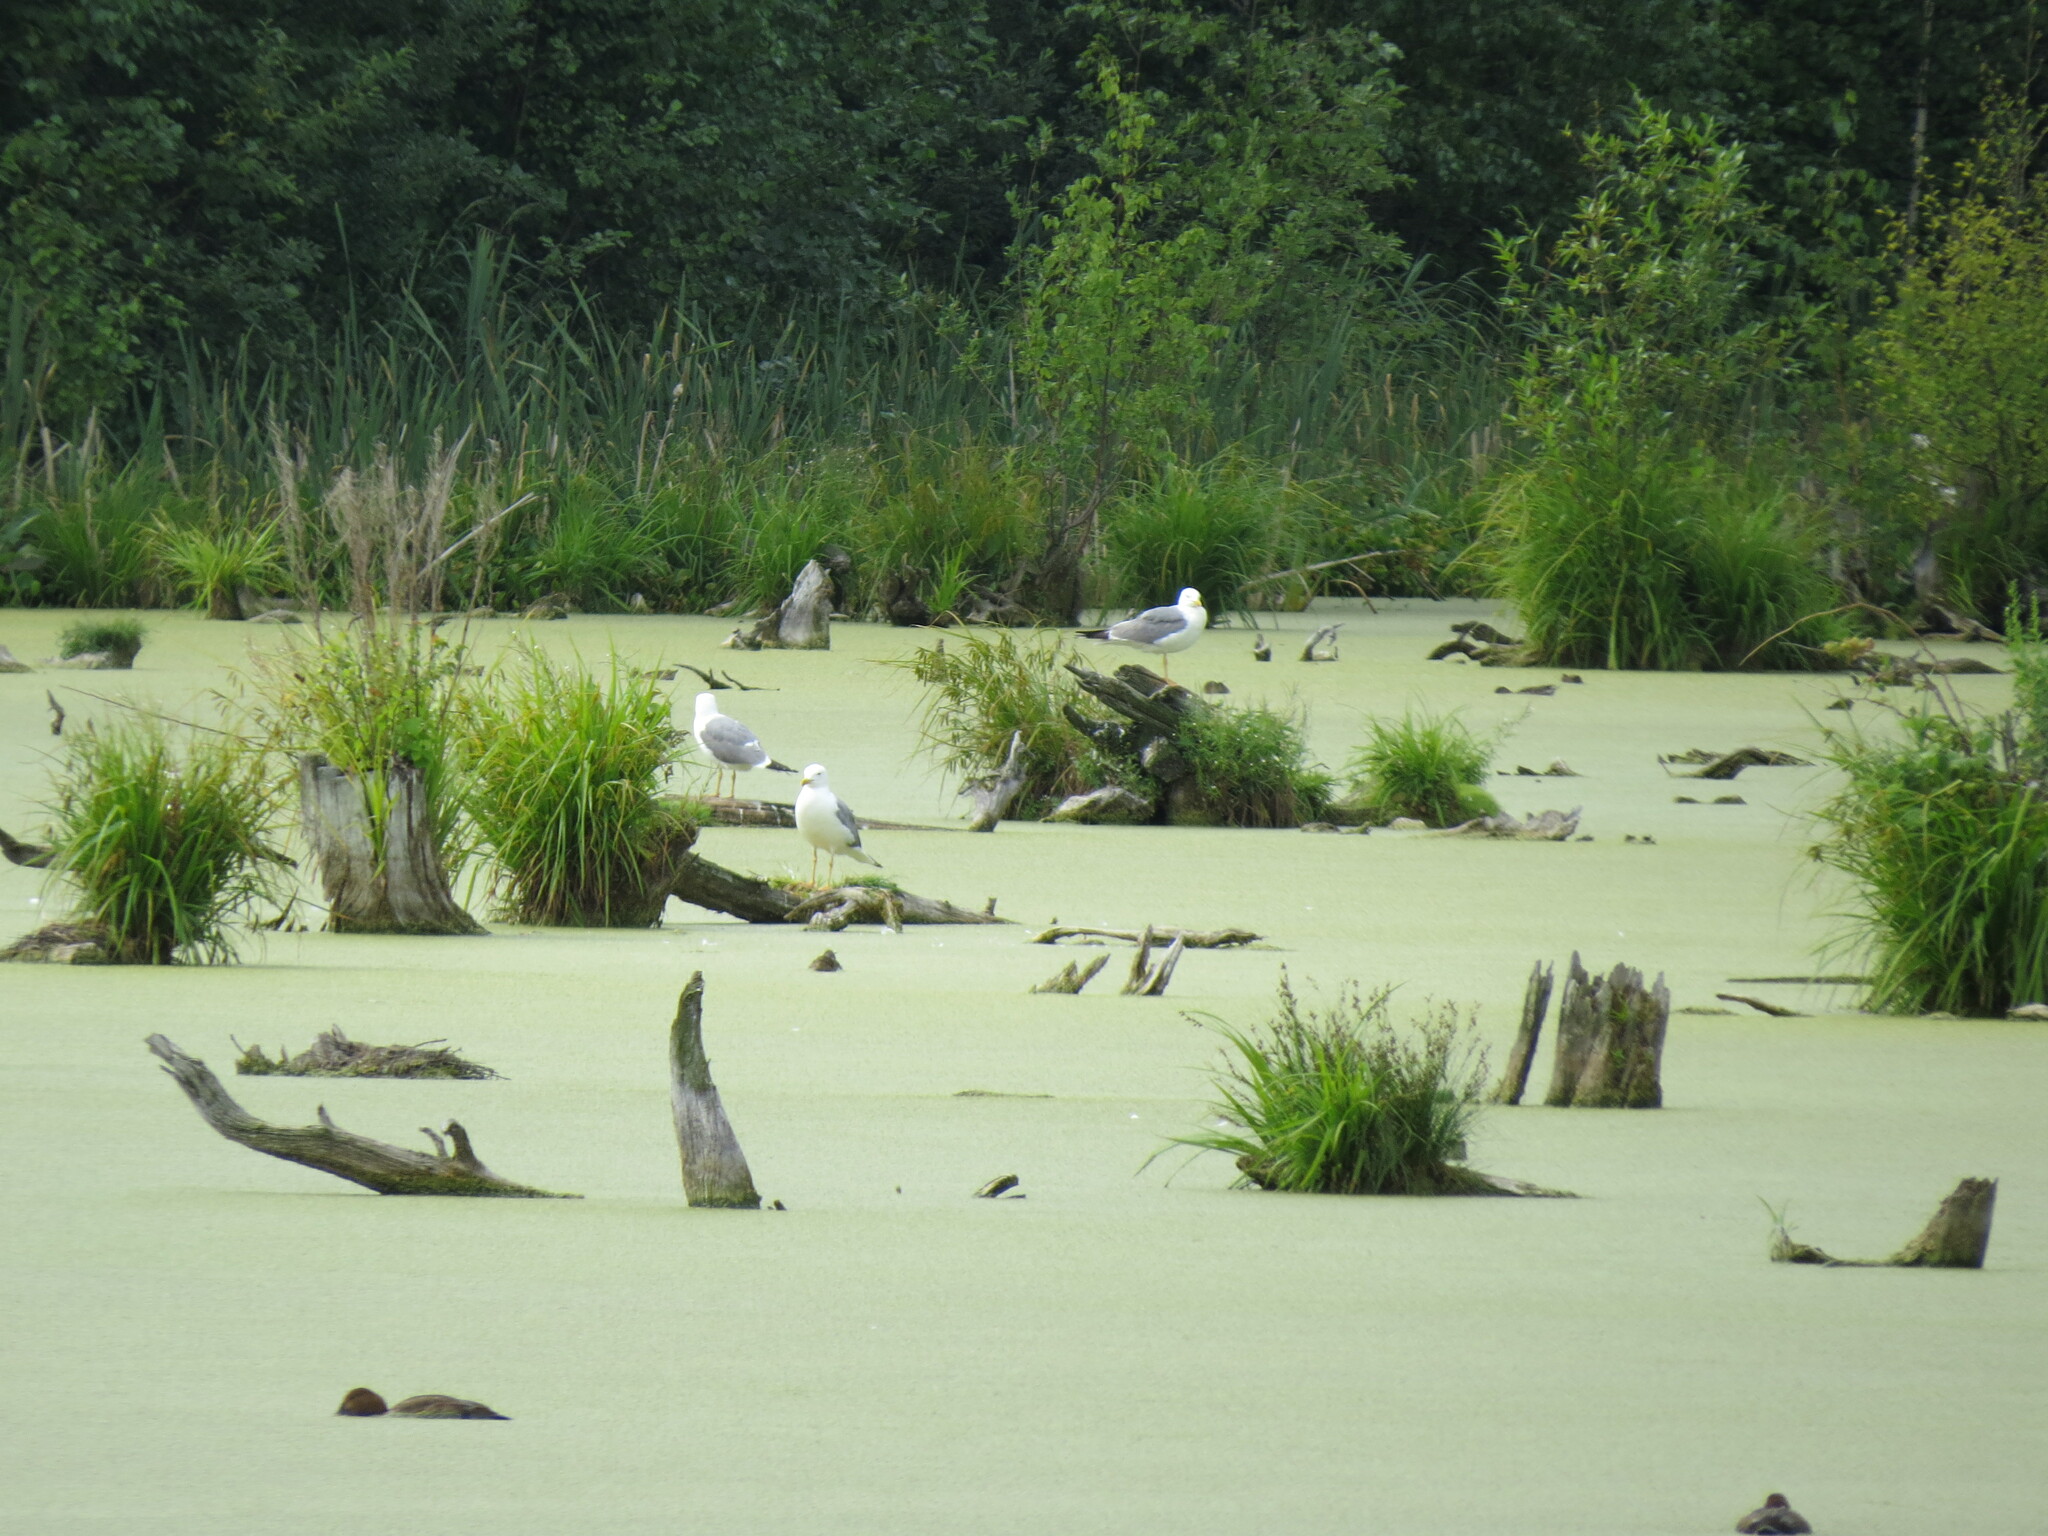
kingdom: Animalia
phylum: Chordata
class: Aves
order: Charadriiformes
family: Laridae
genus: Larus
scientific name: Larus fuscus
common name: Lesser black-backed gull
